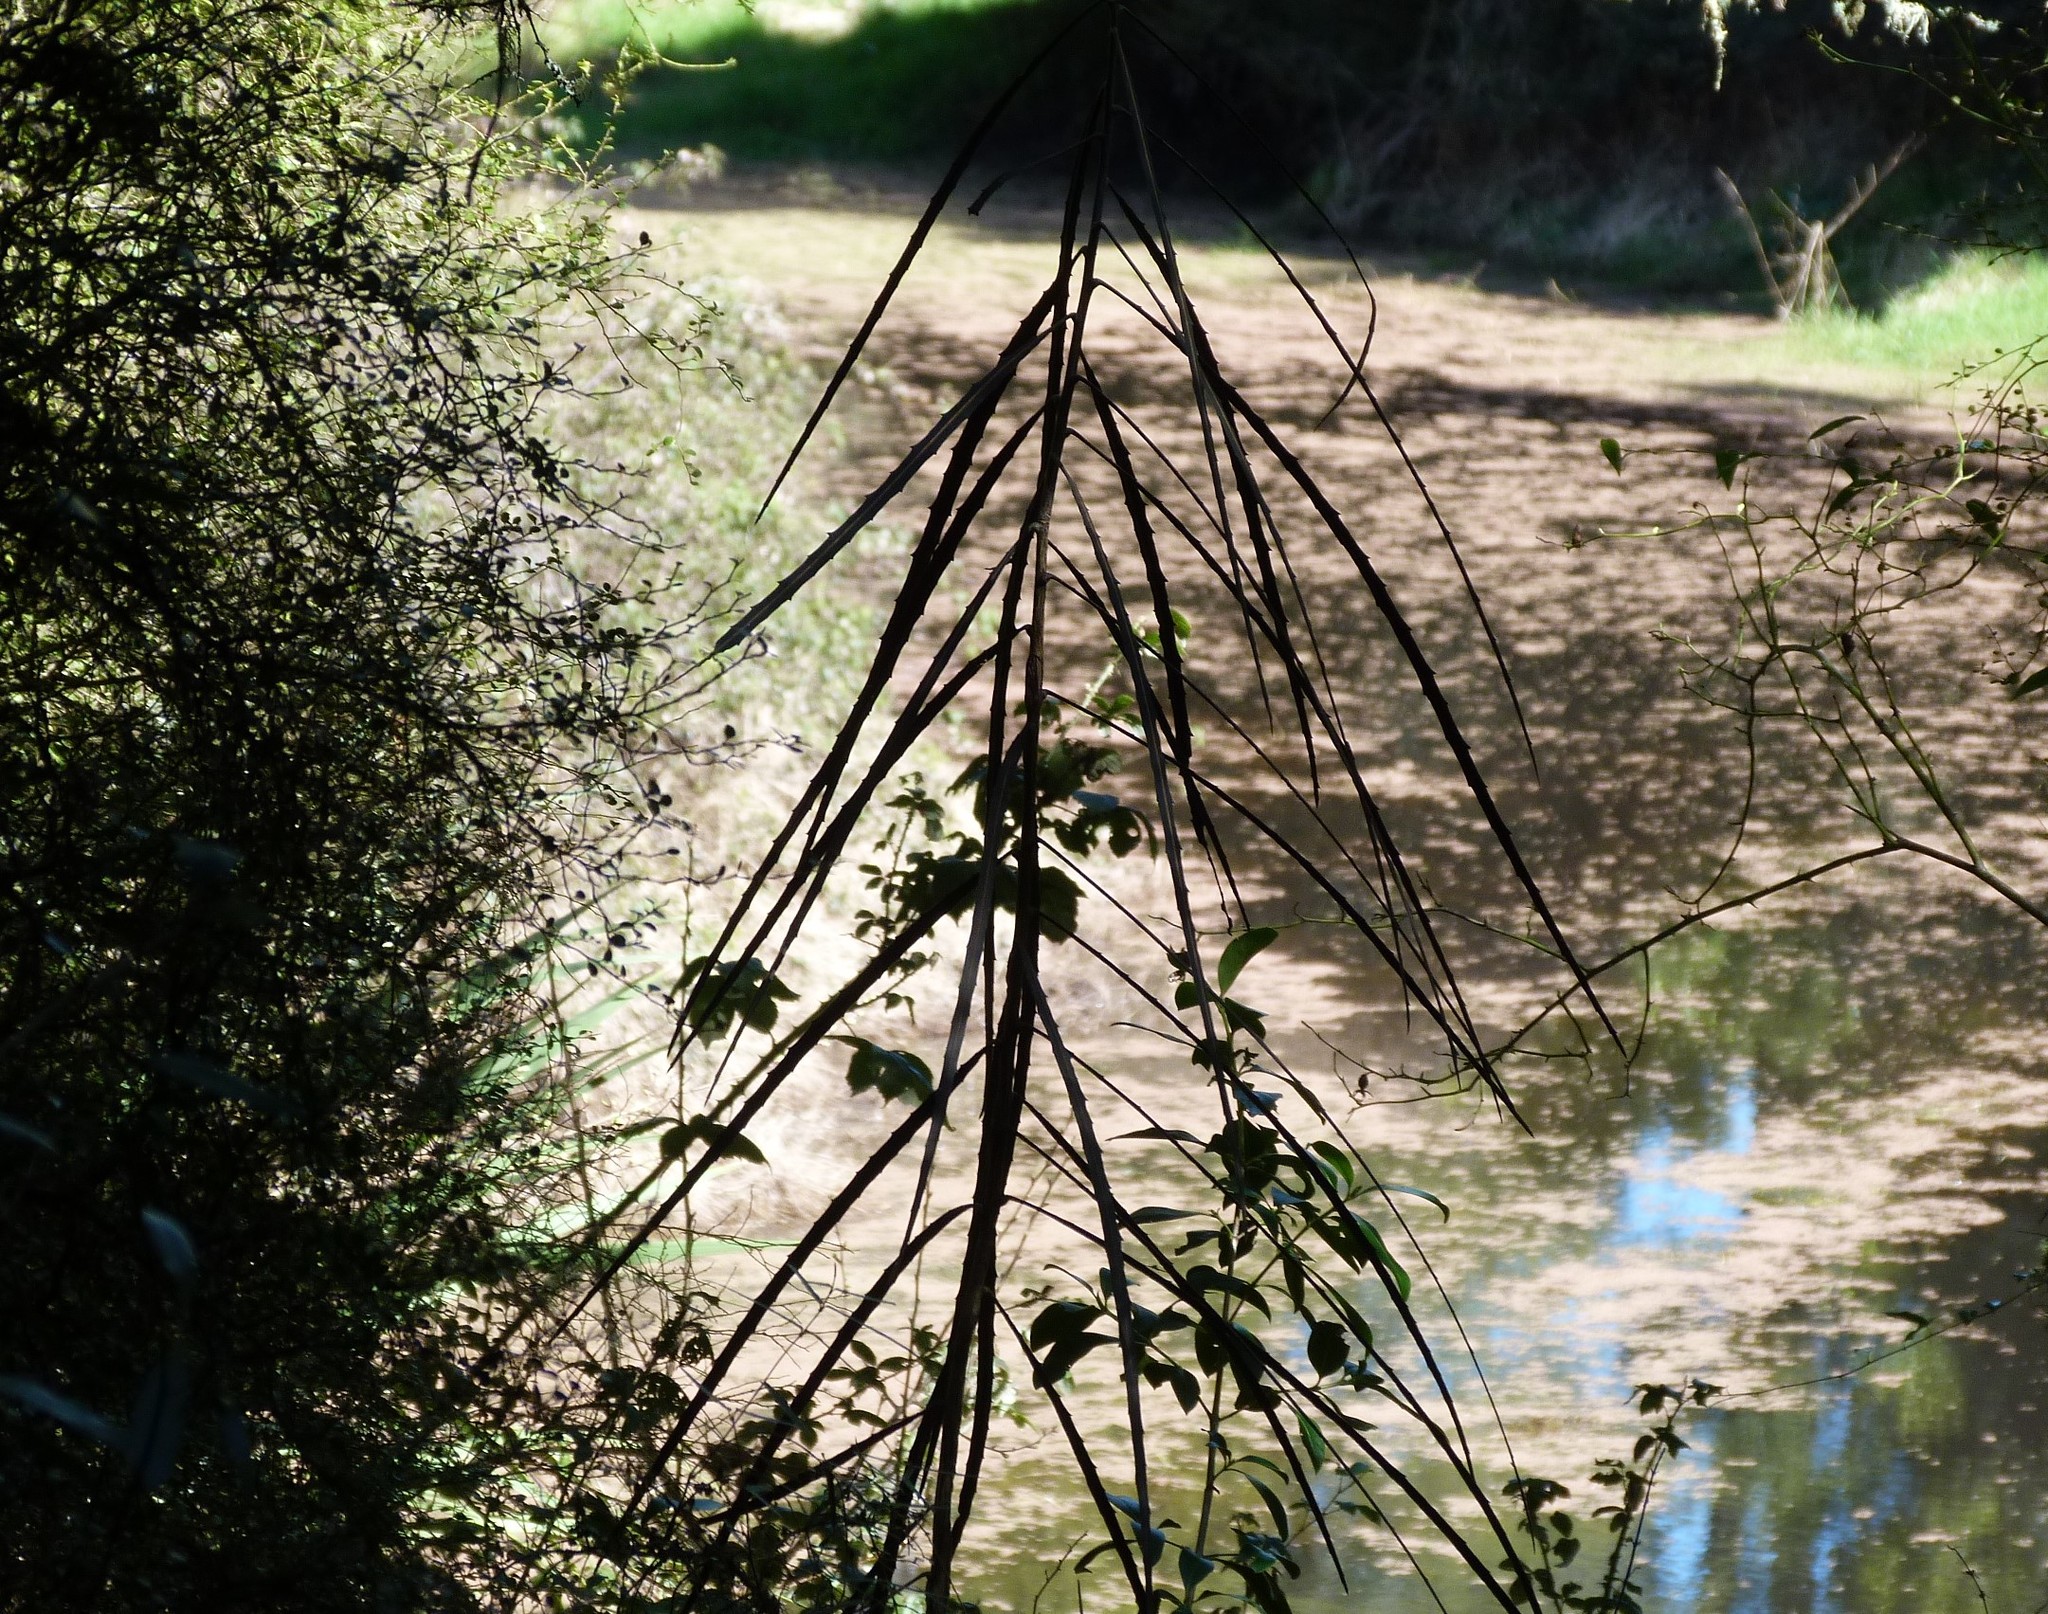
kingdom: Plantae
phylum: Tracheophyta
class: Magnoliopsida
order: Apiales
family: Araliaceae
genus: Pseudopanax
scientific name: Pseudopanax crassifolius
